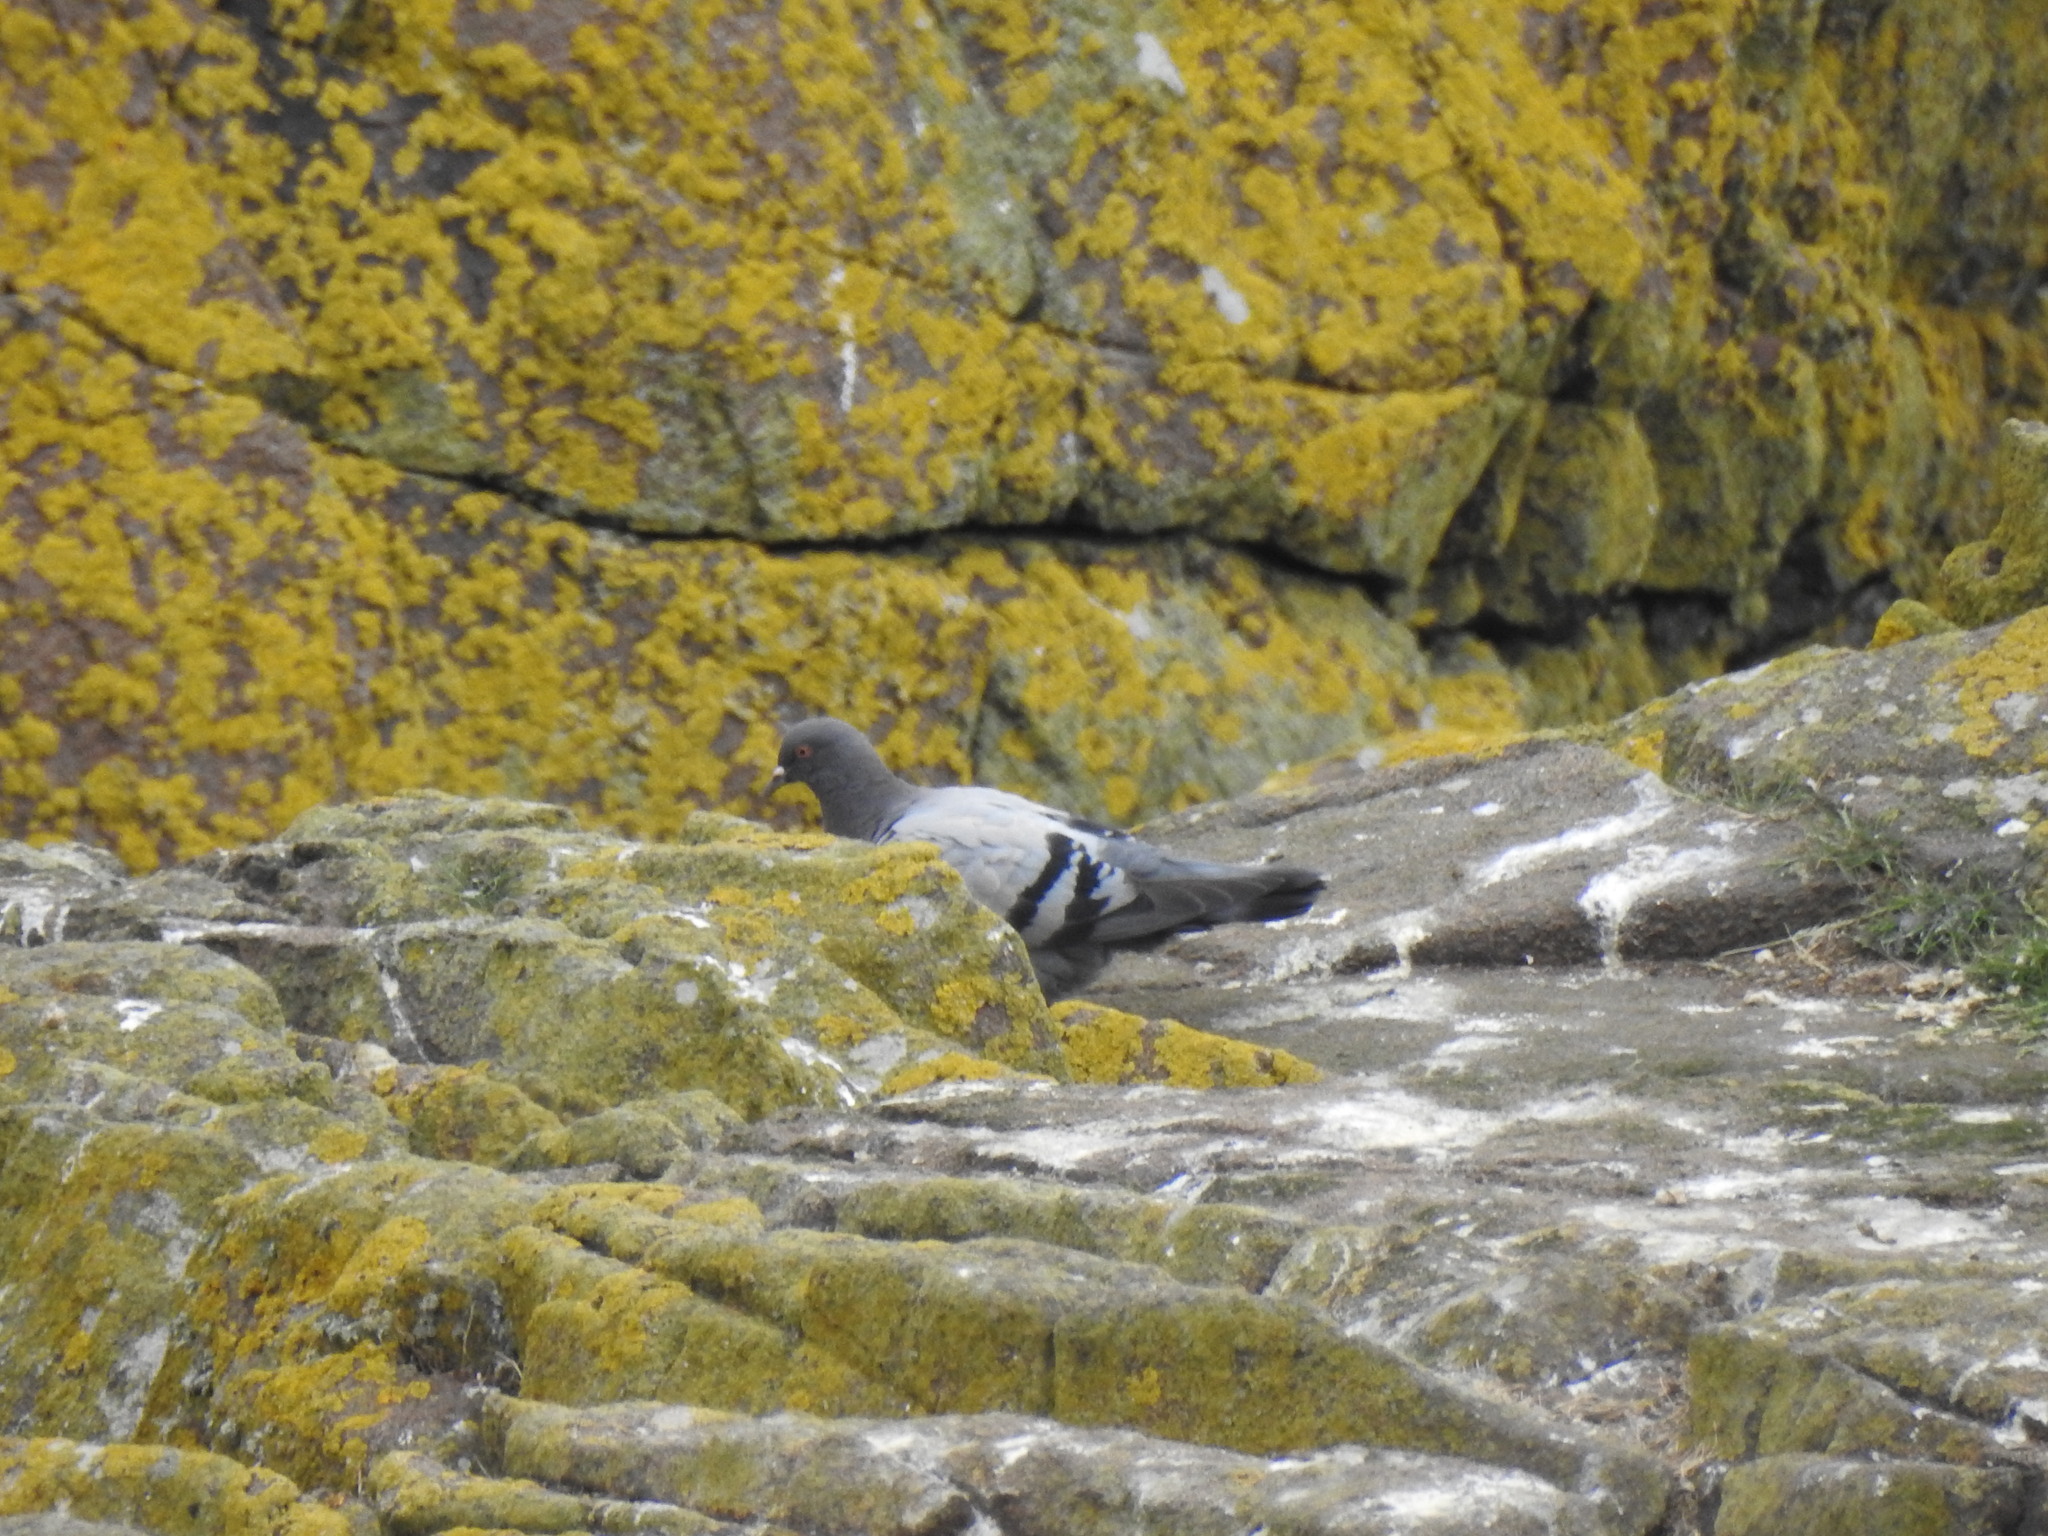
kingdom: Animalia
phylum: Chordata
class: Aves
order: Columbiformes
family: Columbidae
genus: Columba
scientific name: Columba livia
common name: Rock pigeon
